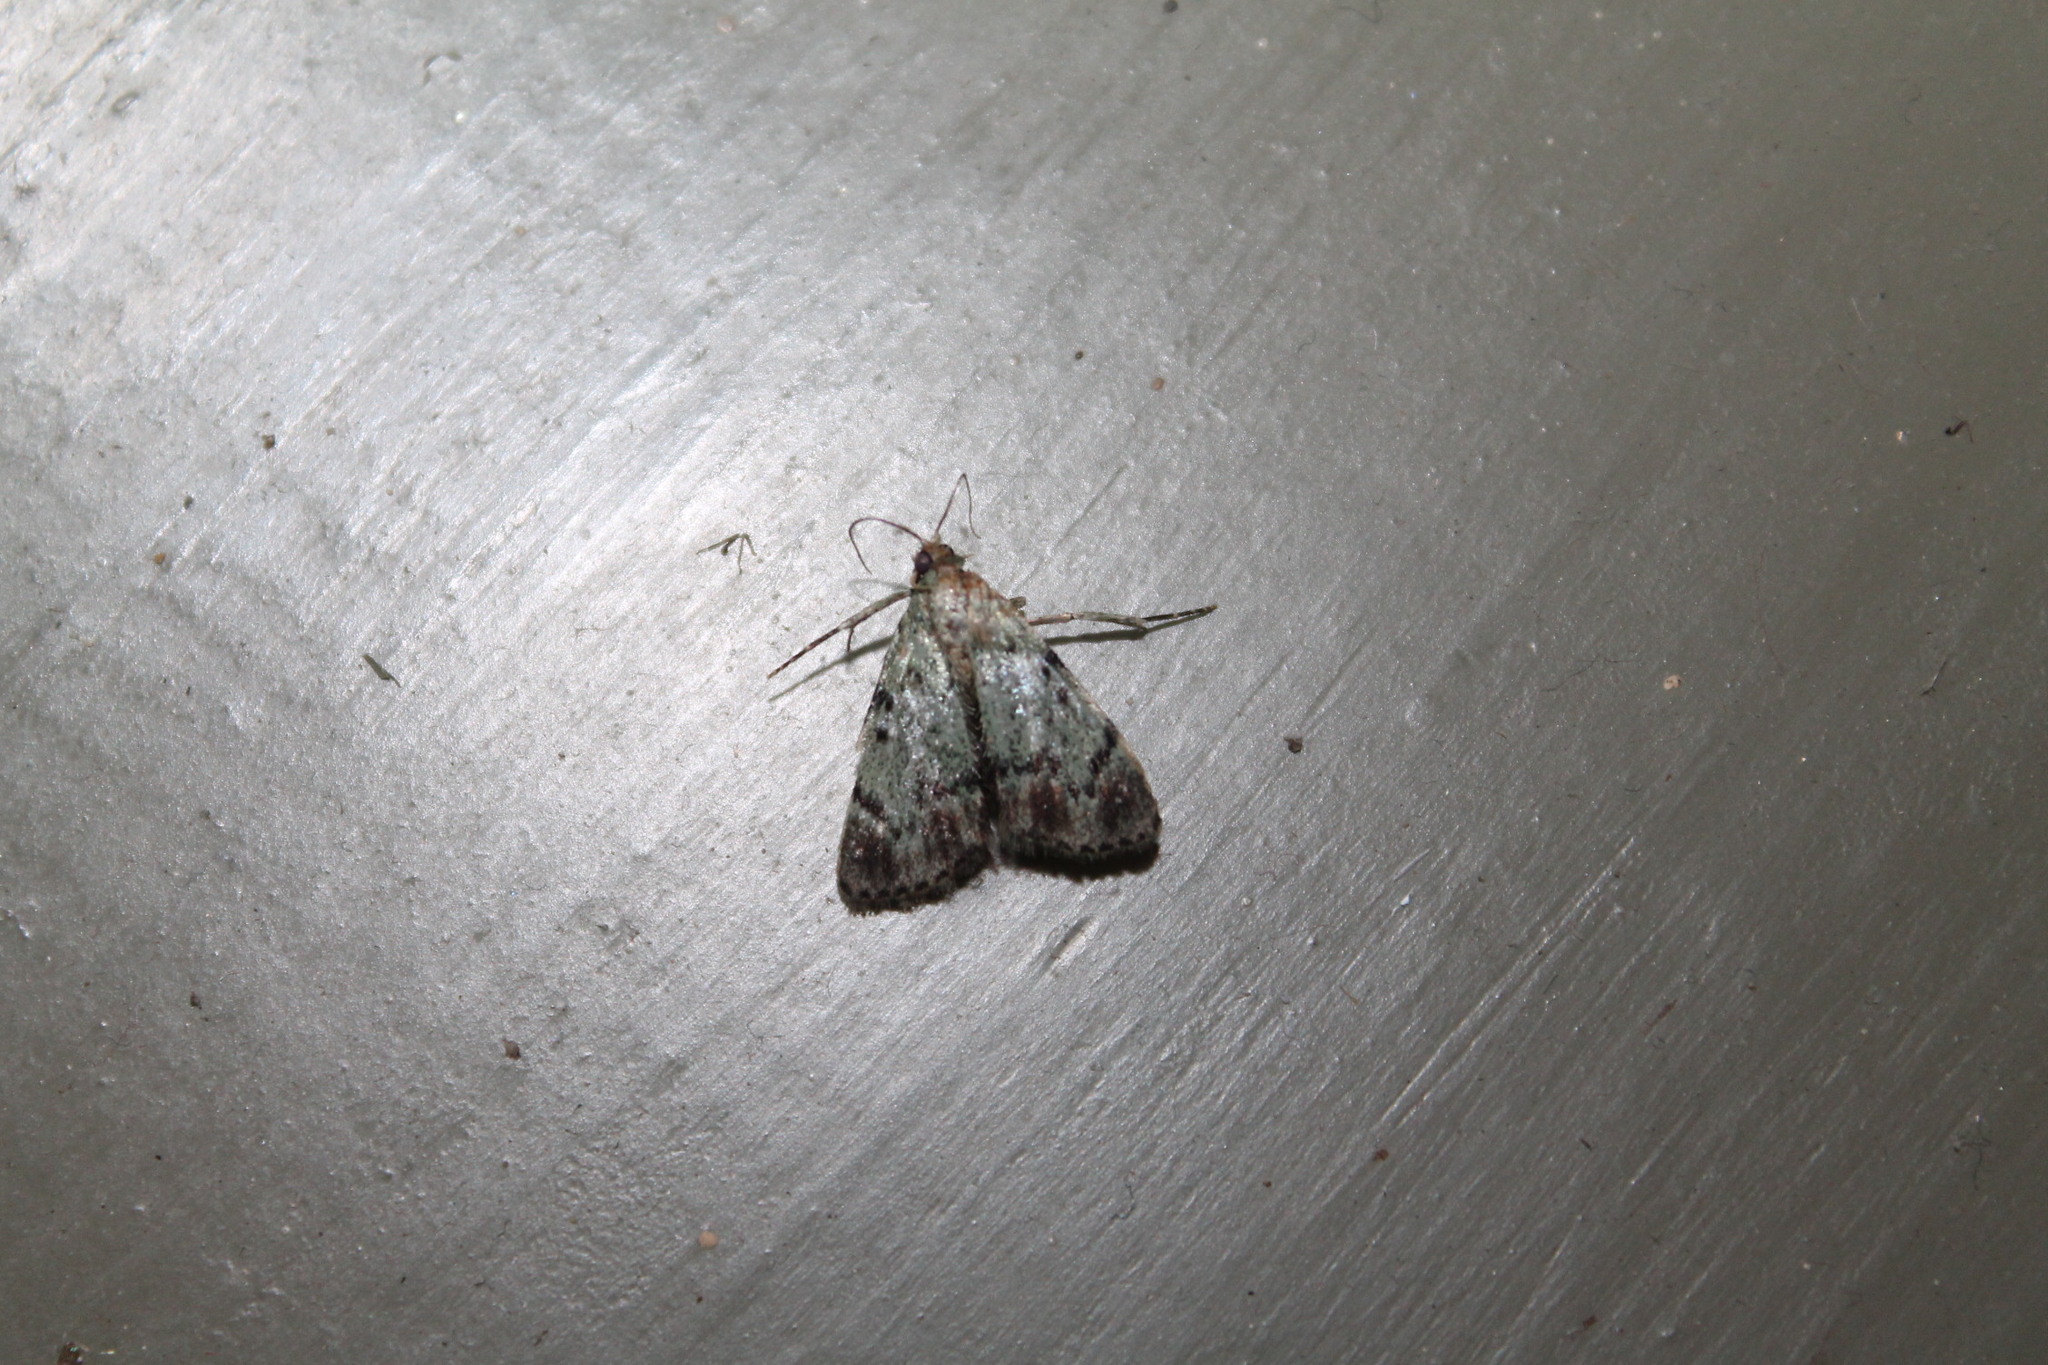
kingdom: Animalia
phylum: Arthropoda
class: Insecta
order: Lepidoptera
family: Pyralidae
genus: Epipaschia
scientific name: Epipaschia superatalis
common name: Dimorphic macalla moth
